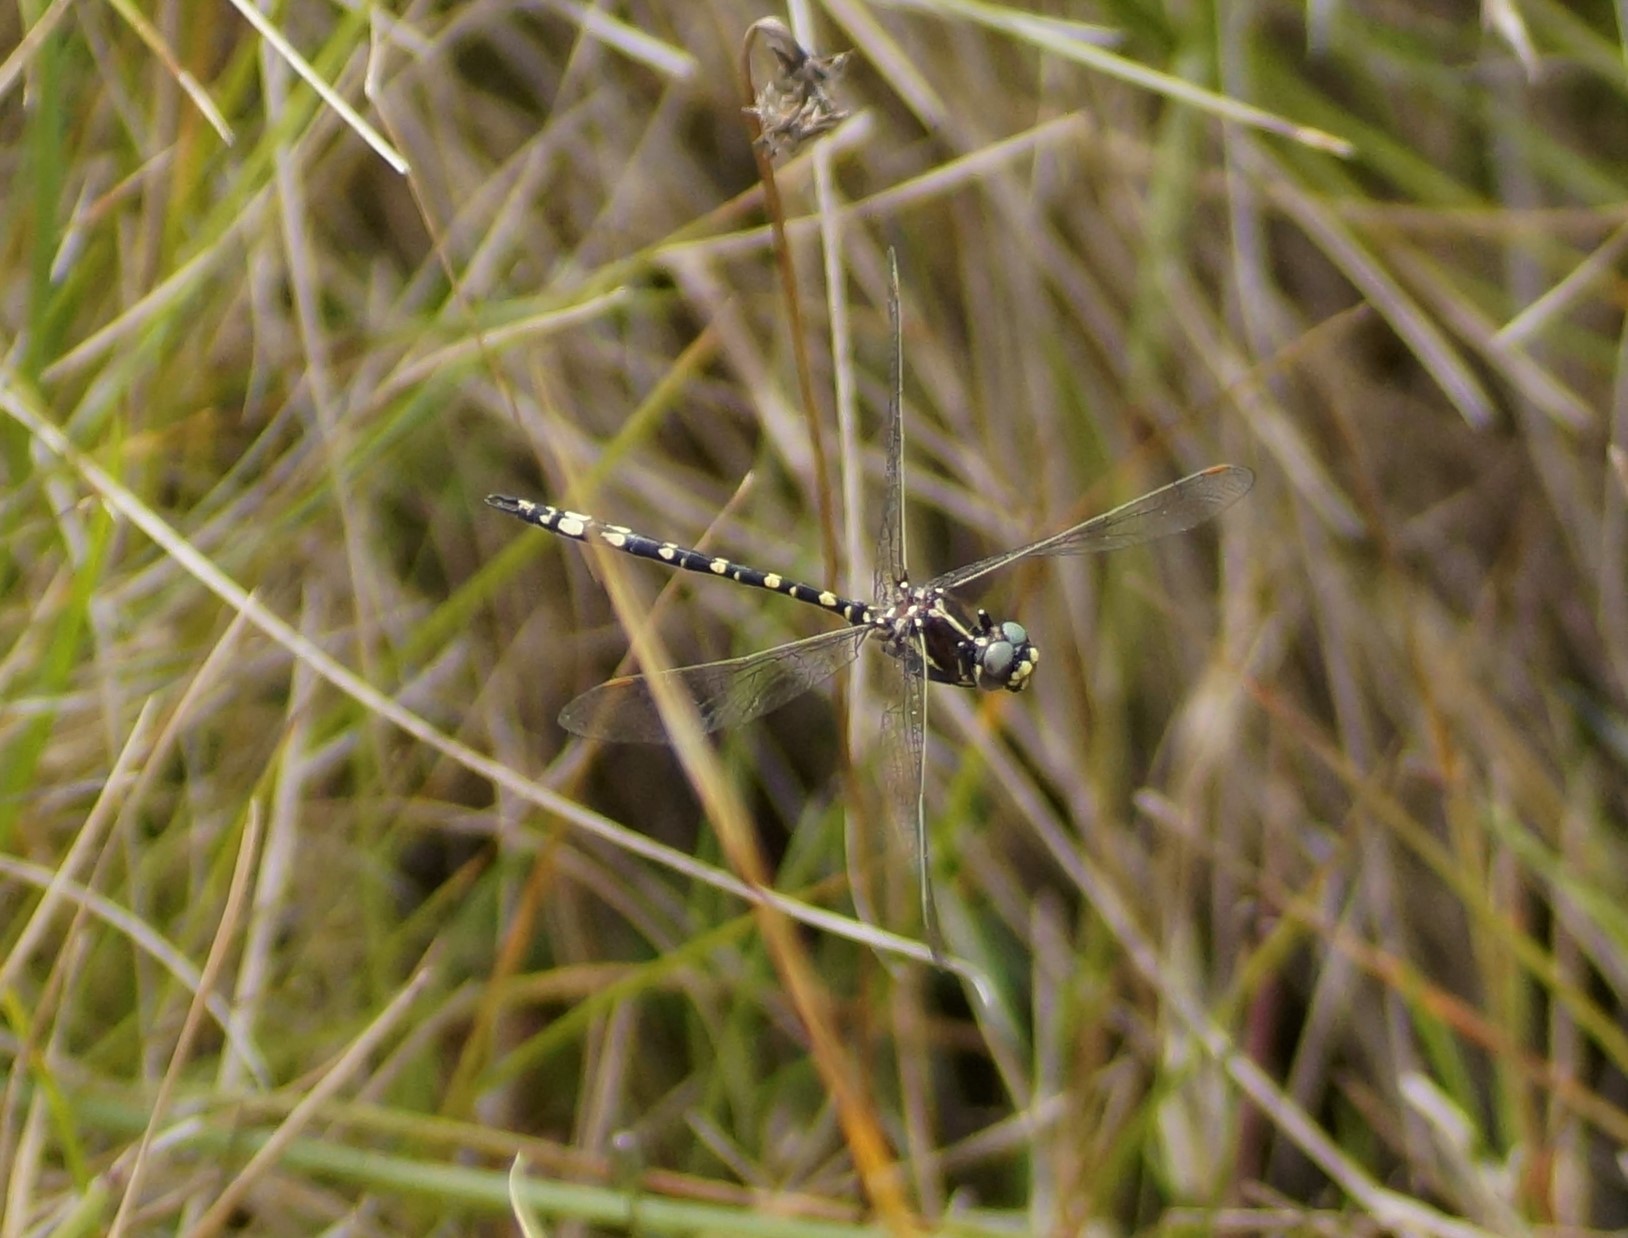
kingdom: Animalia
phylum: Arthropoda
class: Insecta
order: Odonata
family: Synthemistidae
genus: Synthemis
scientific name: Synthemis eustalacta
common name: Swamp tigertail
